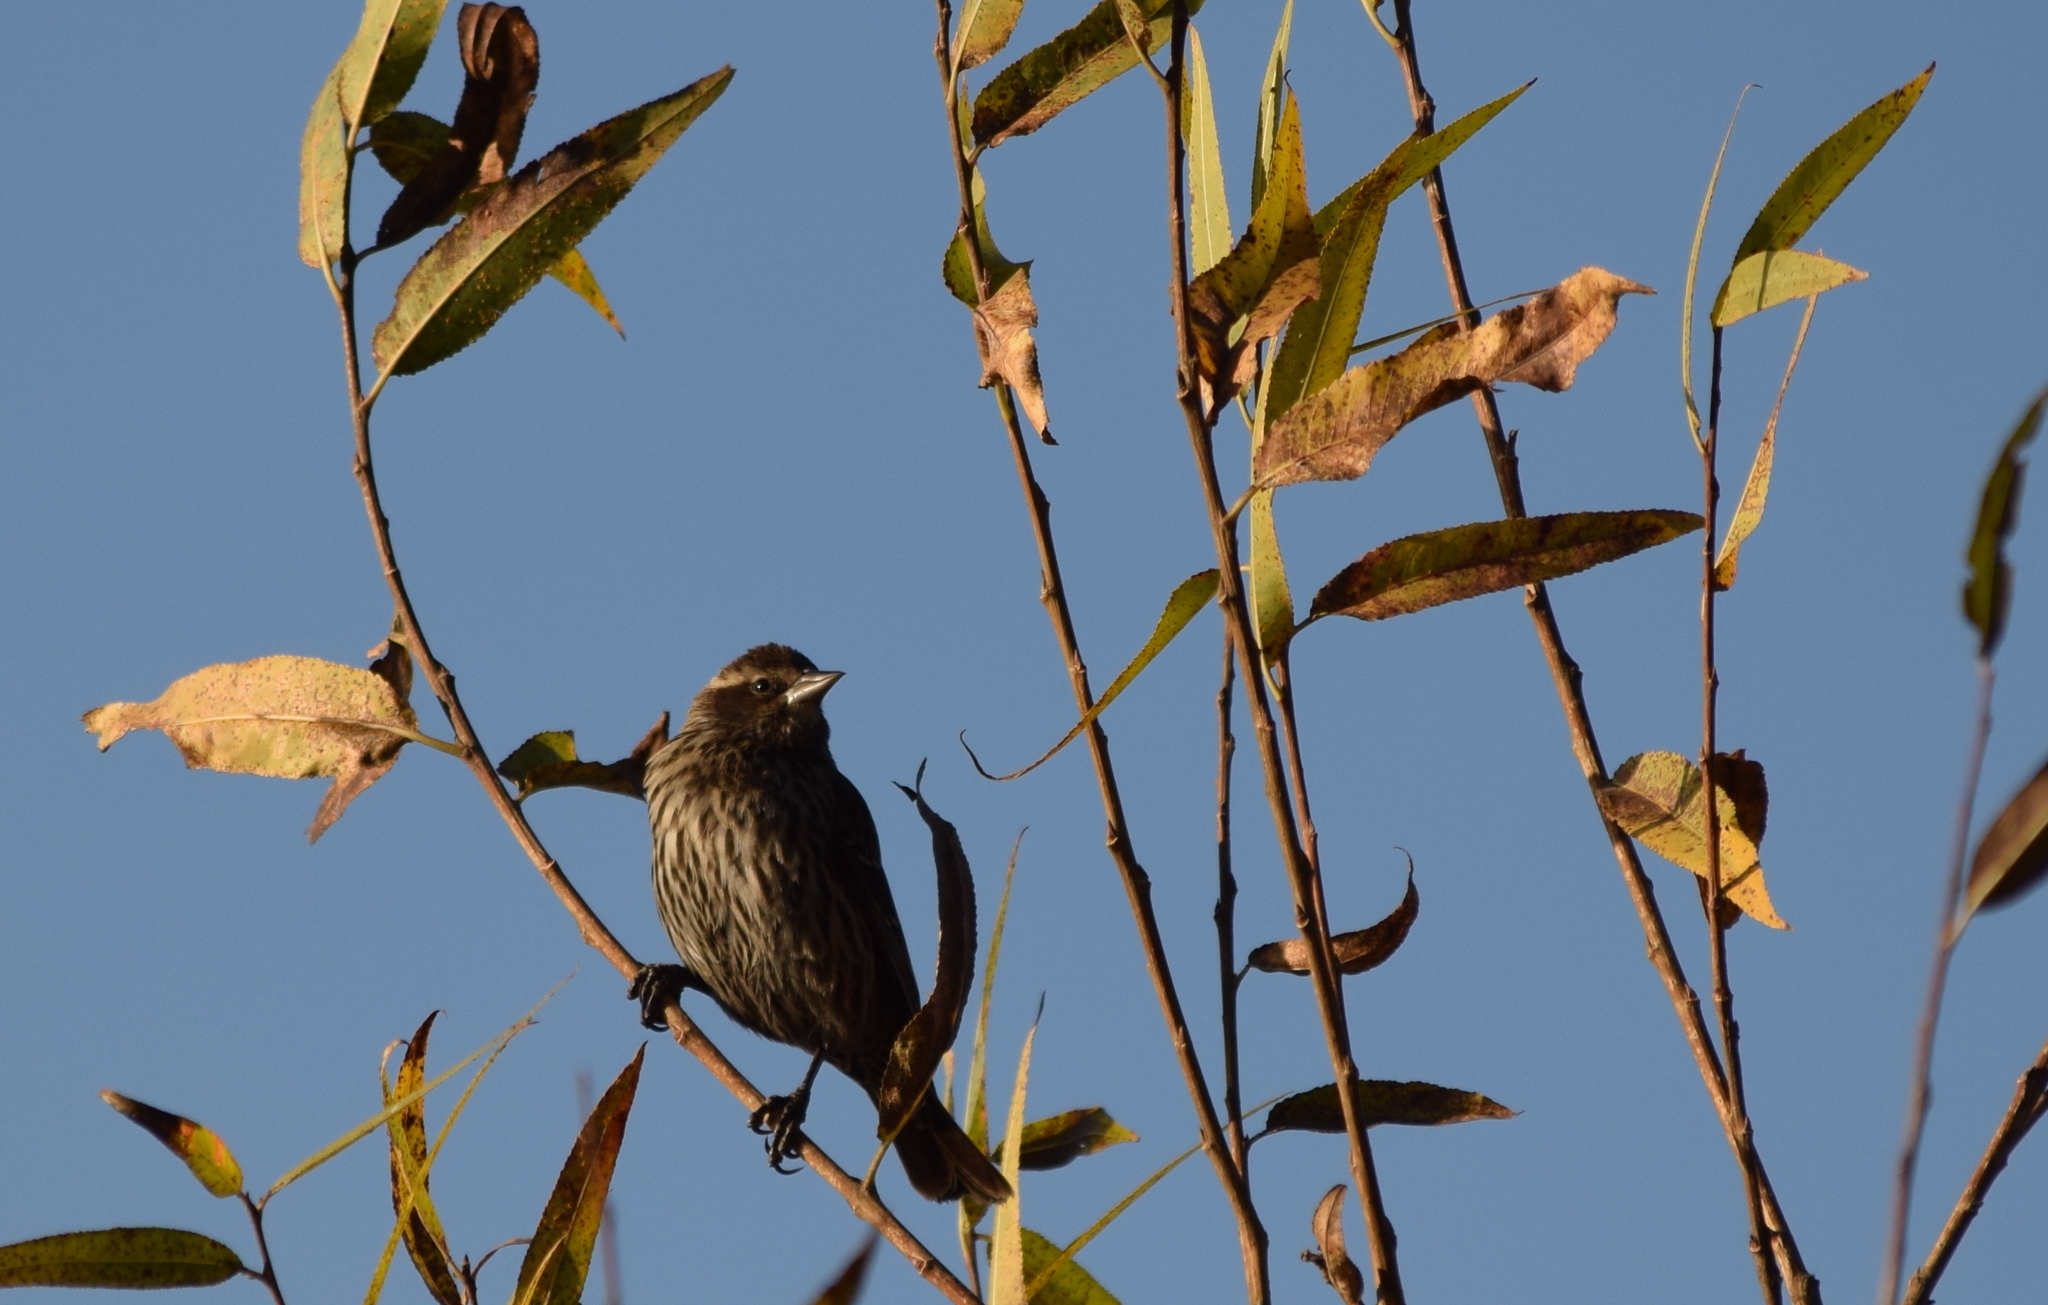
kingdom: Animalia
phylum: Chordata
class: Aves
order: Passeriformes
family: Icteridae
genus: Agelaius
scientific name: Agelaius phoeniceus
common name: Red-winged blackbird
